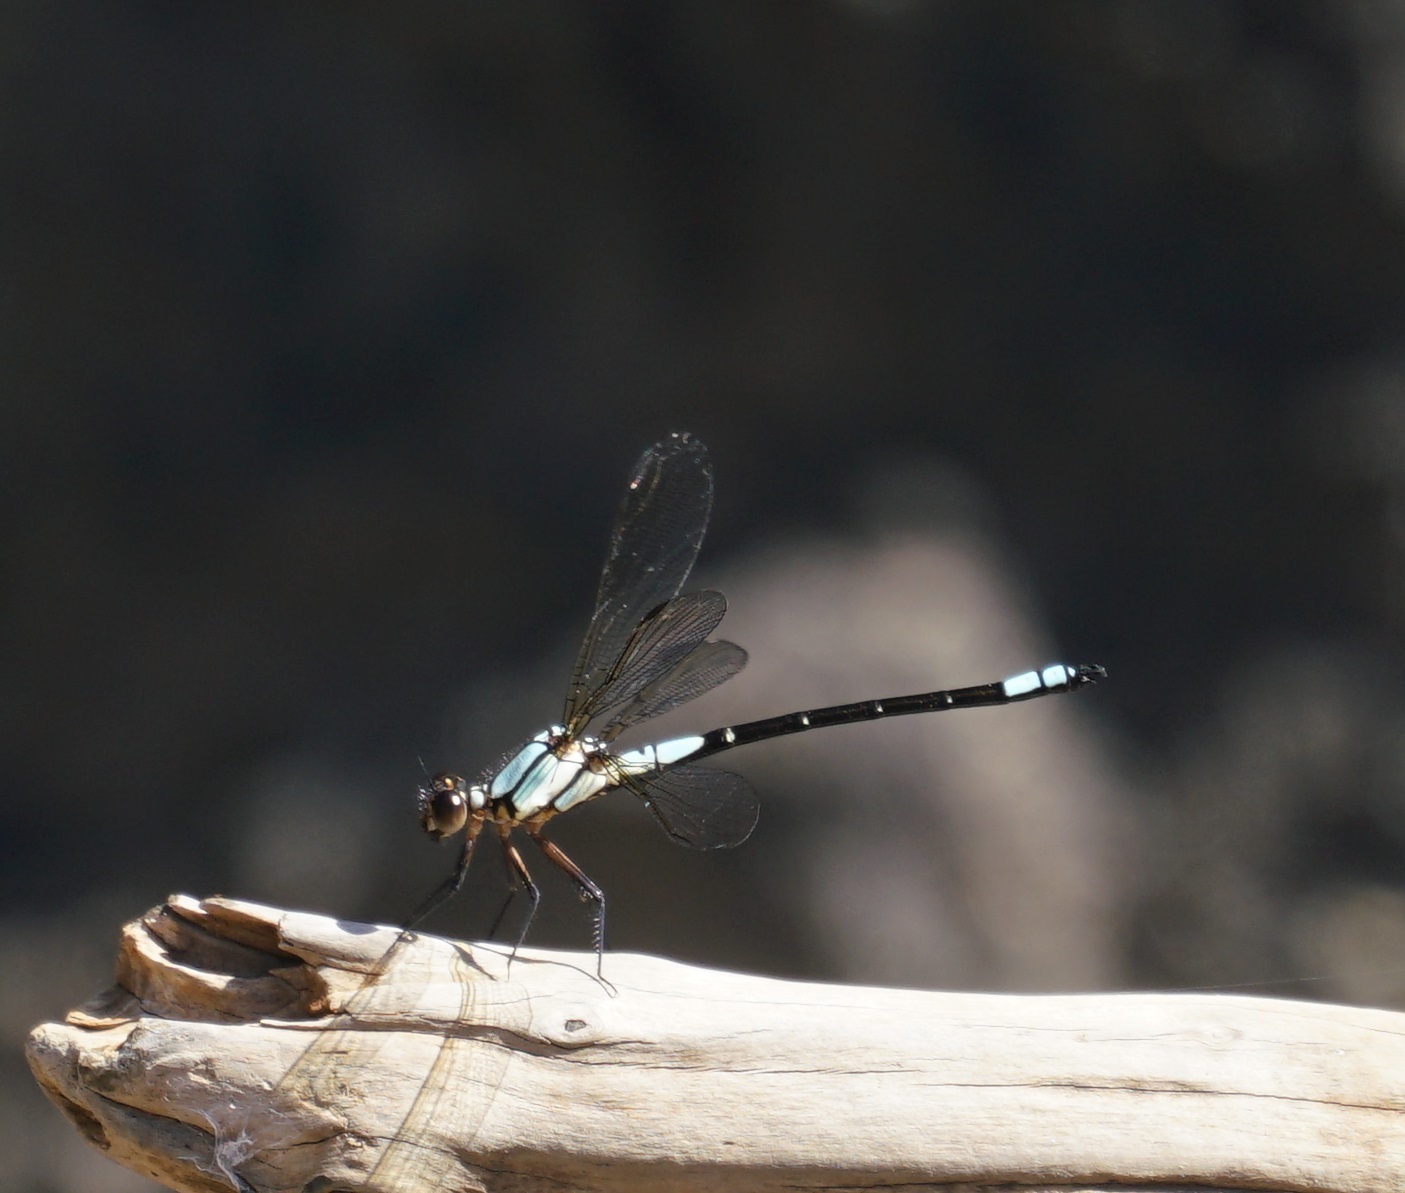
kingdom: Animalia
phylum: Arthropoda
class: Insecta
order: Odonata
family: Lestoideidae
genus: Diphlebia
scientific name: Diphlebia euphoeoides
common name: Tropical rockmaster
